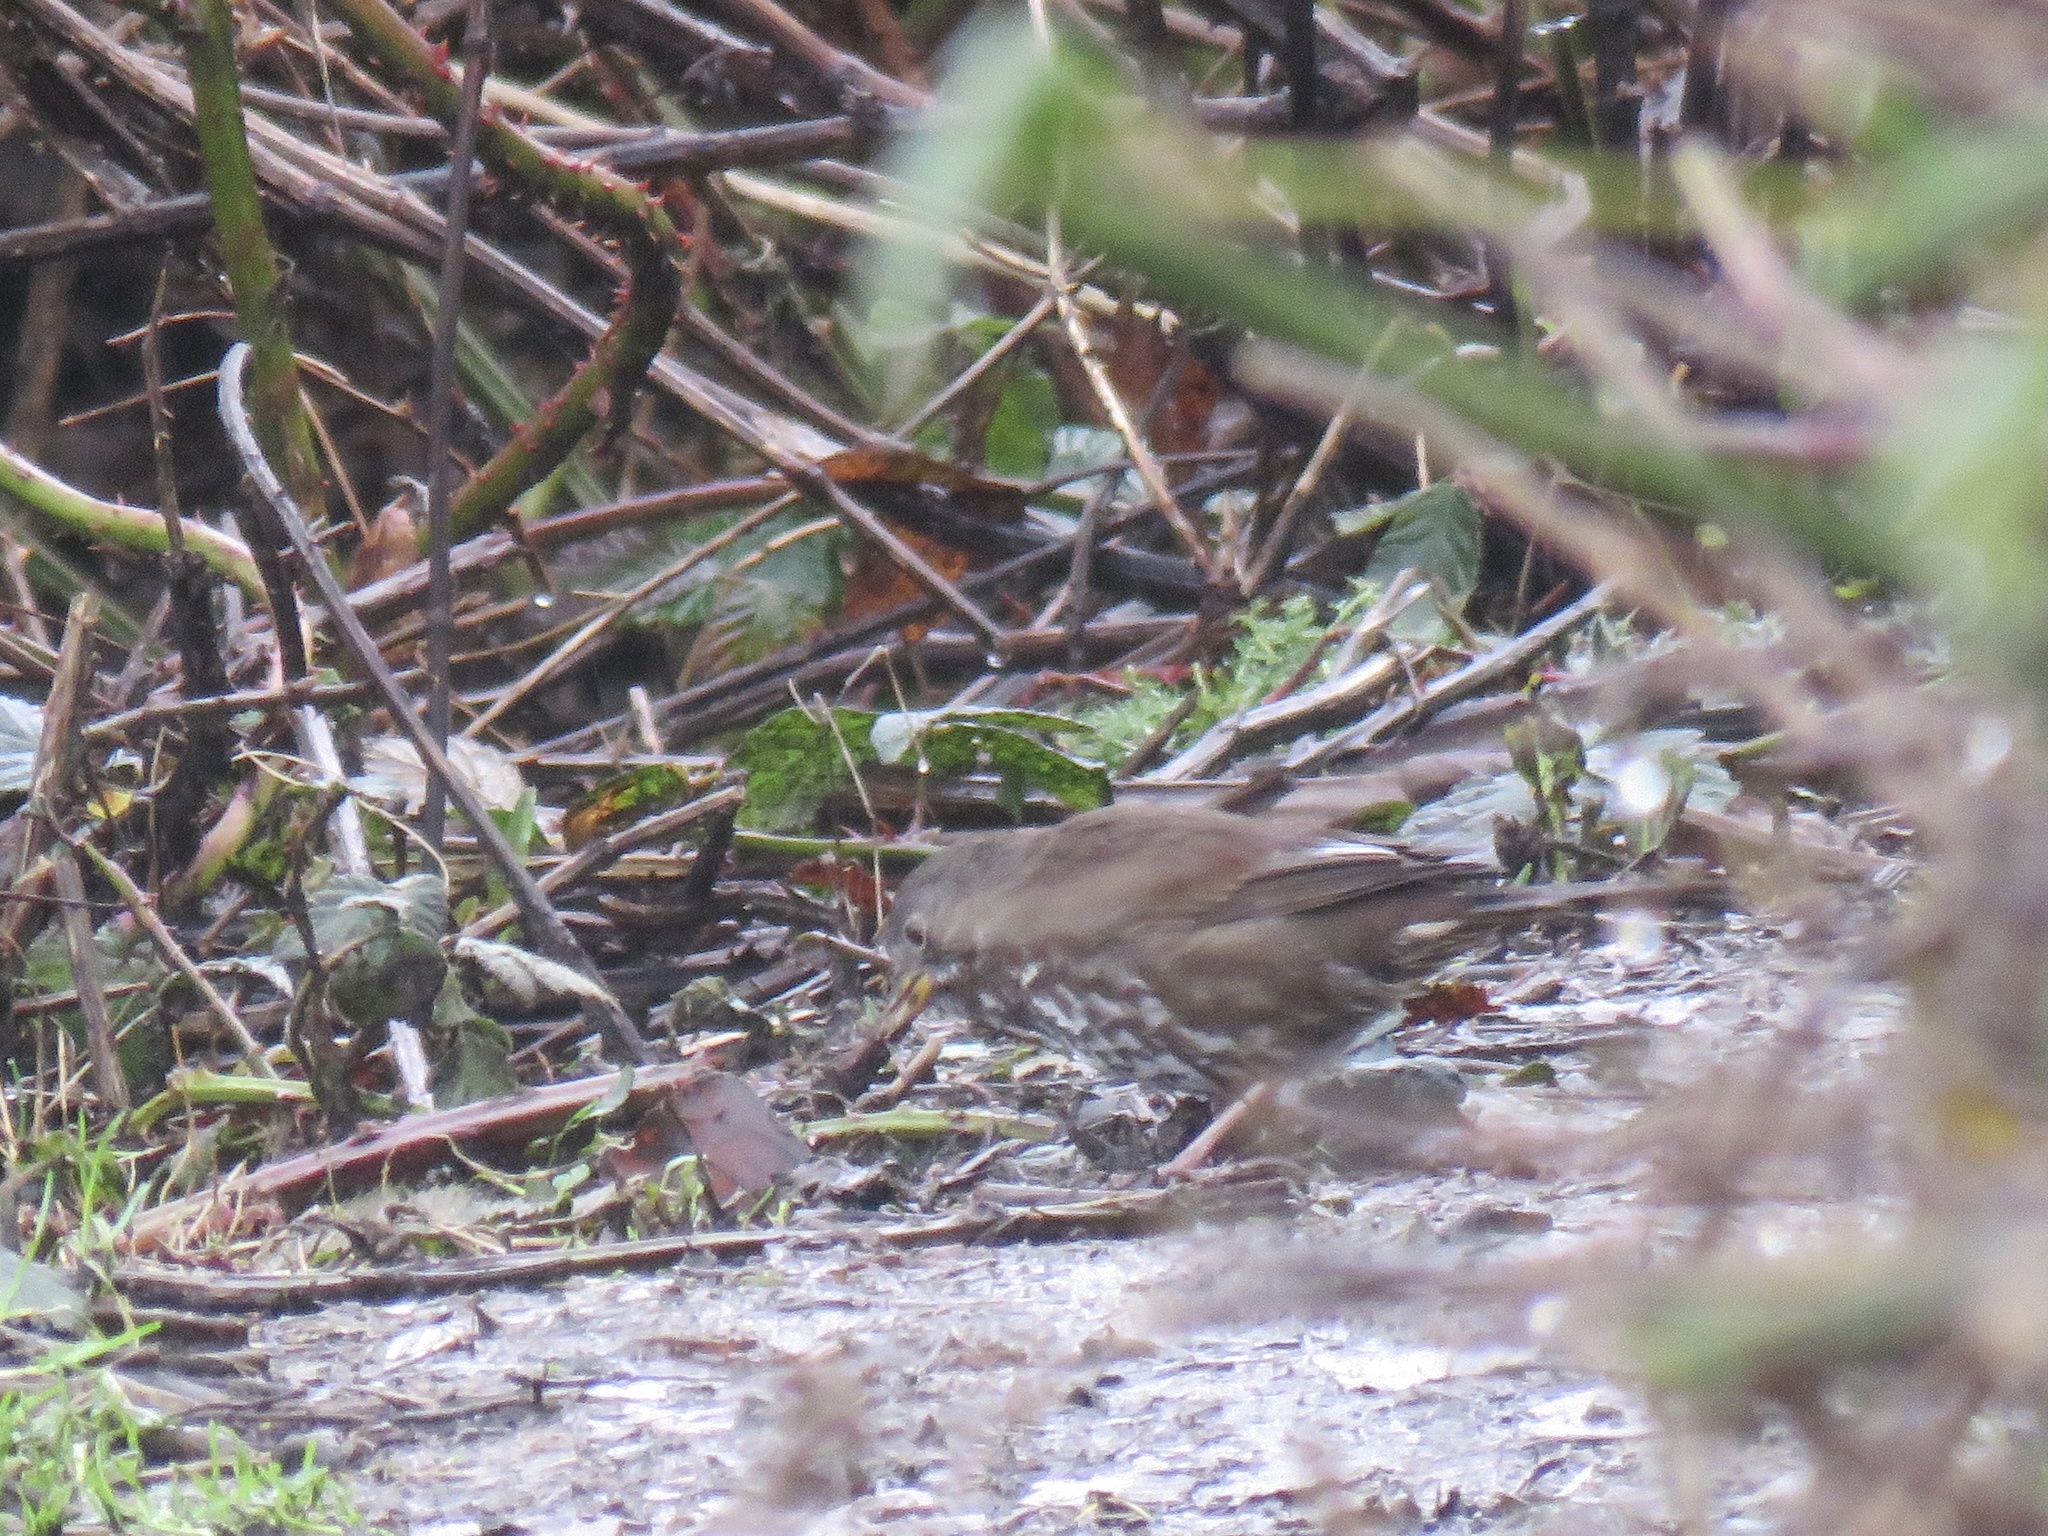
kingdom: Animalia
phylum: Chordata
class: Aves
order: Passeriformes
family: Passerellidae
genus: Passerella
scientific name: Passerella iliaca
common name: Fox sparrow
